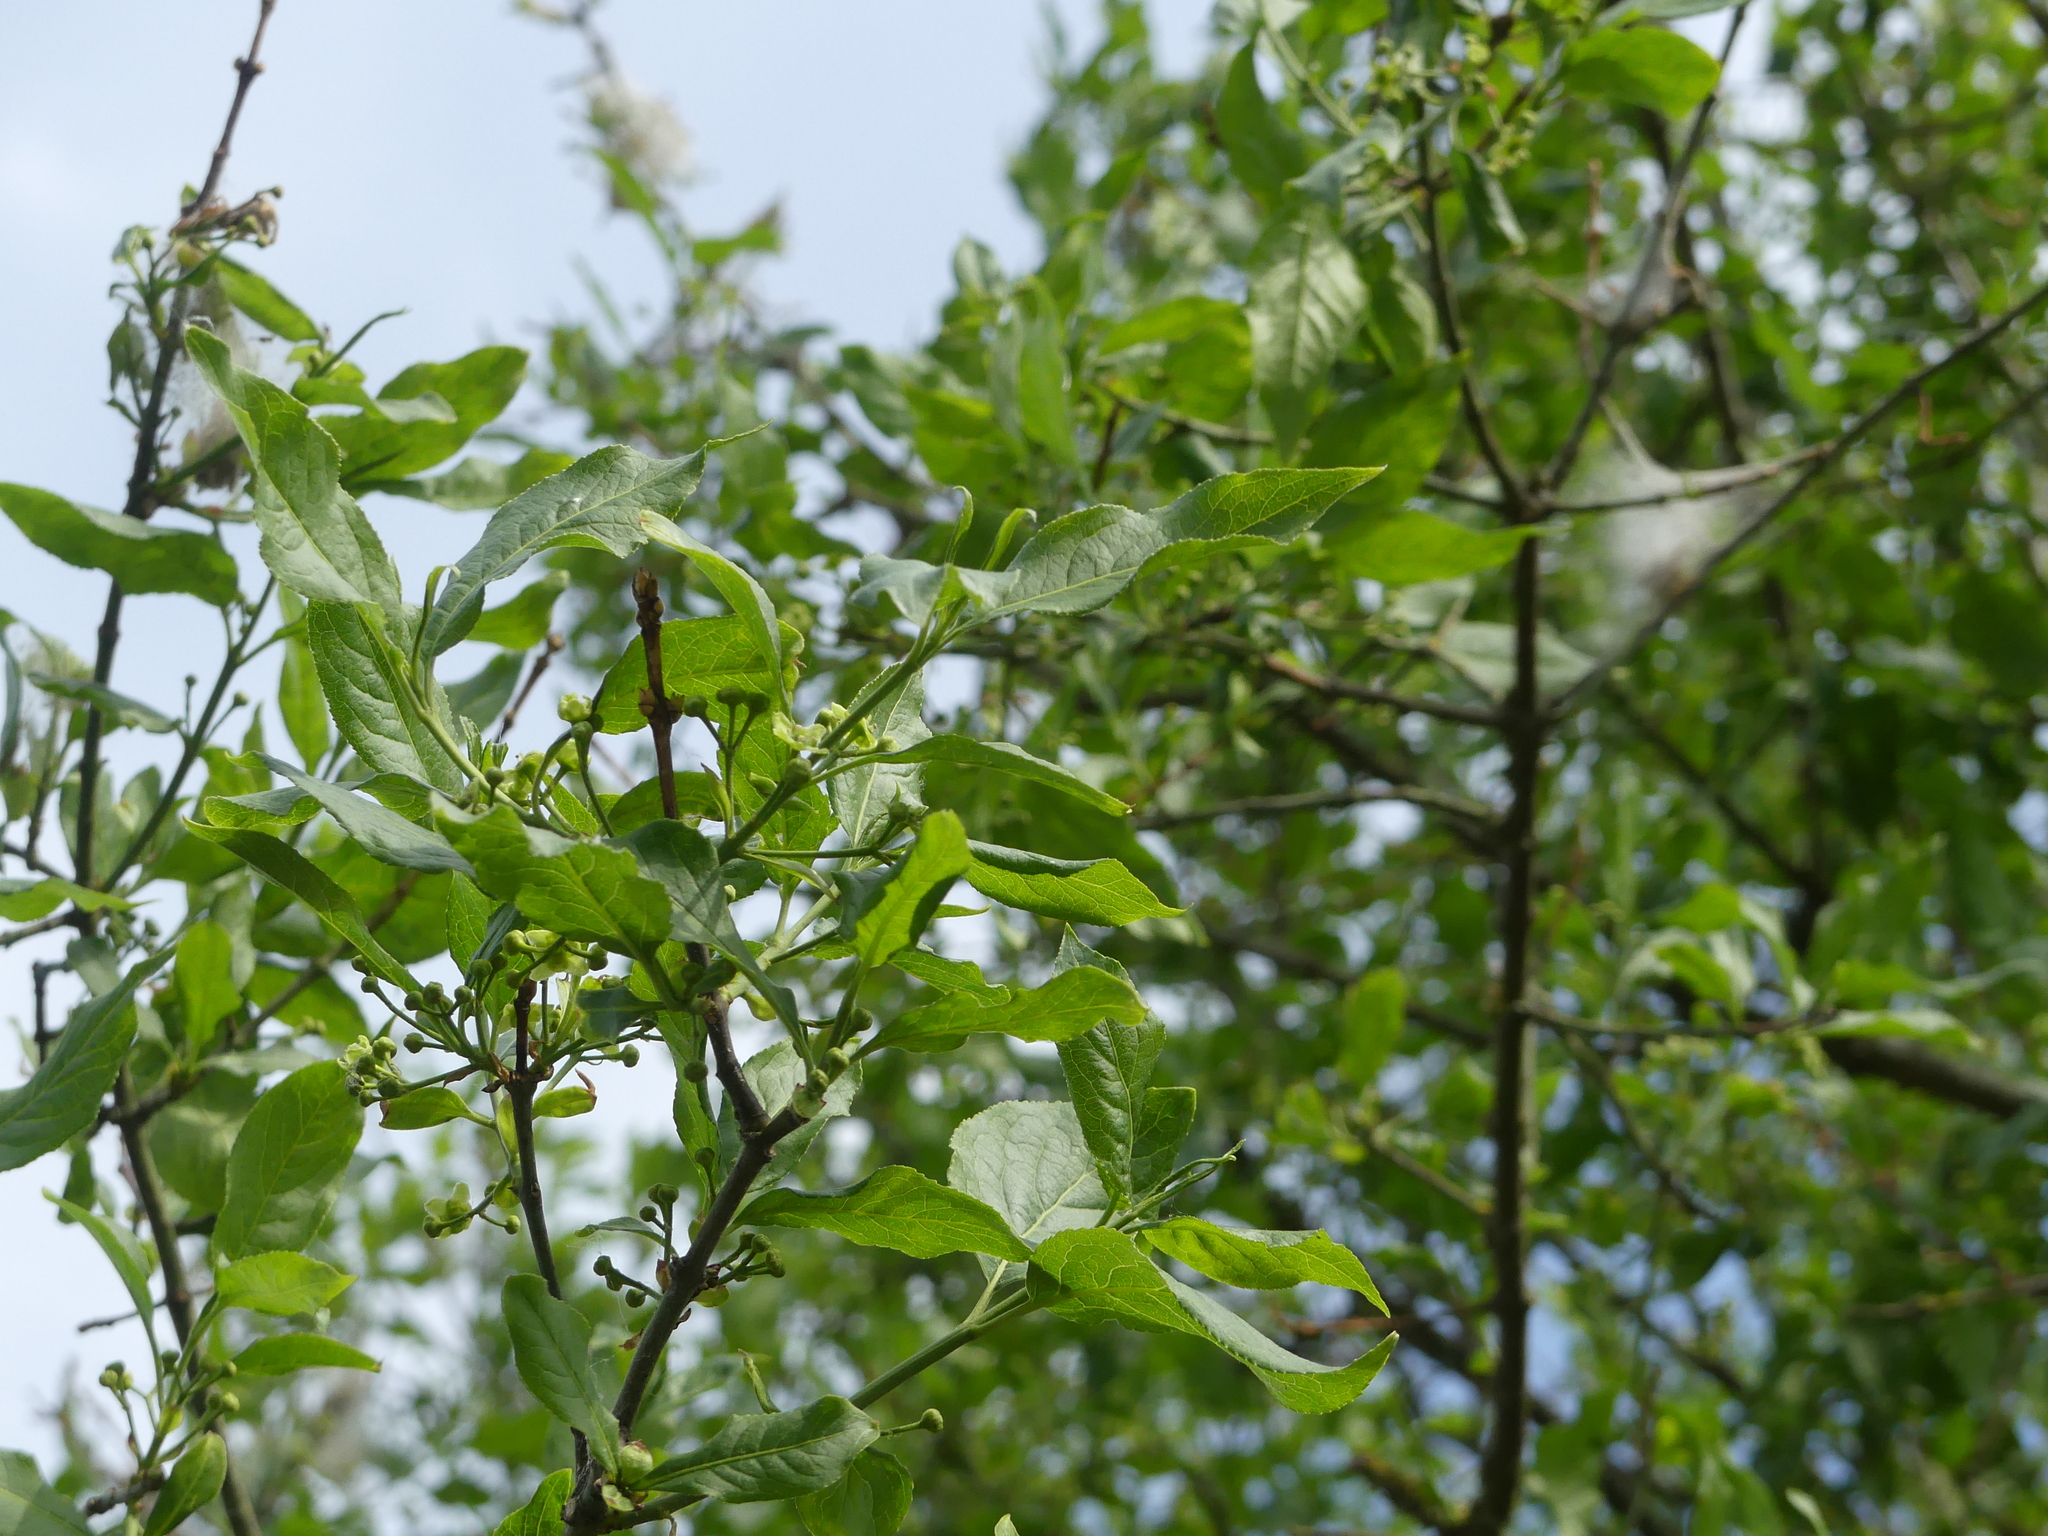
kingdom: Plantae
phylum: Tracheophyta
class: Magnoliopsida
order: Celastrales
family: Celastraceae
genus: Euonymus
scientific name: Euonymus europaeus
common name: Spindle
